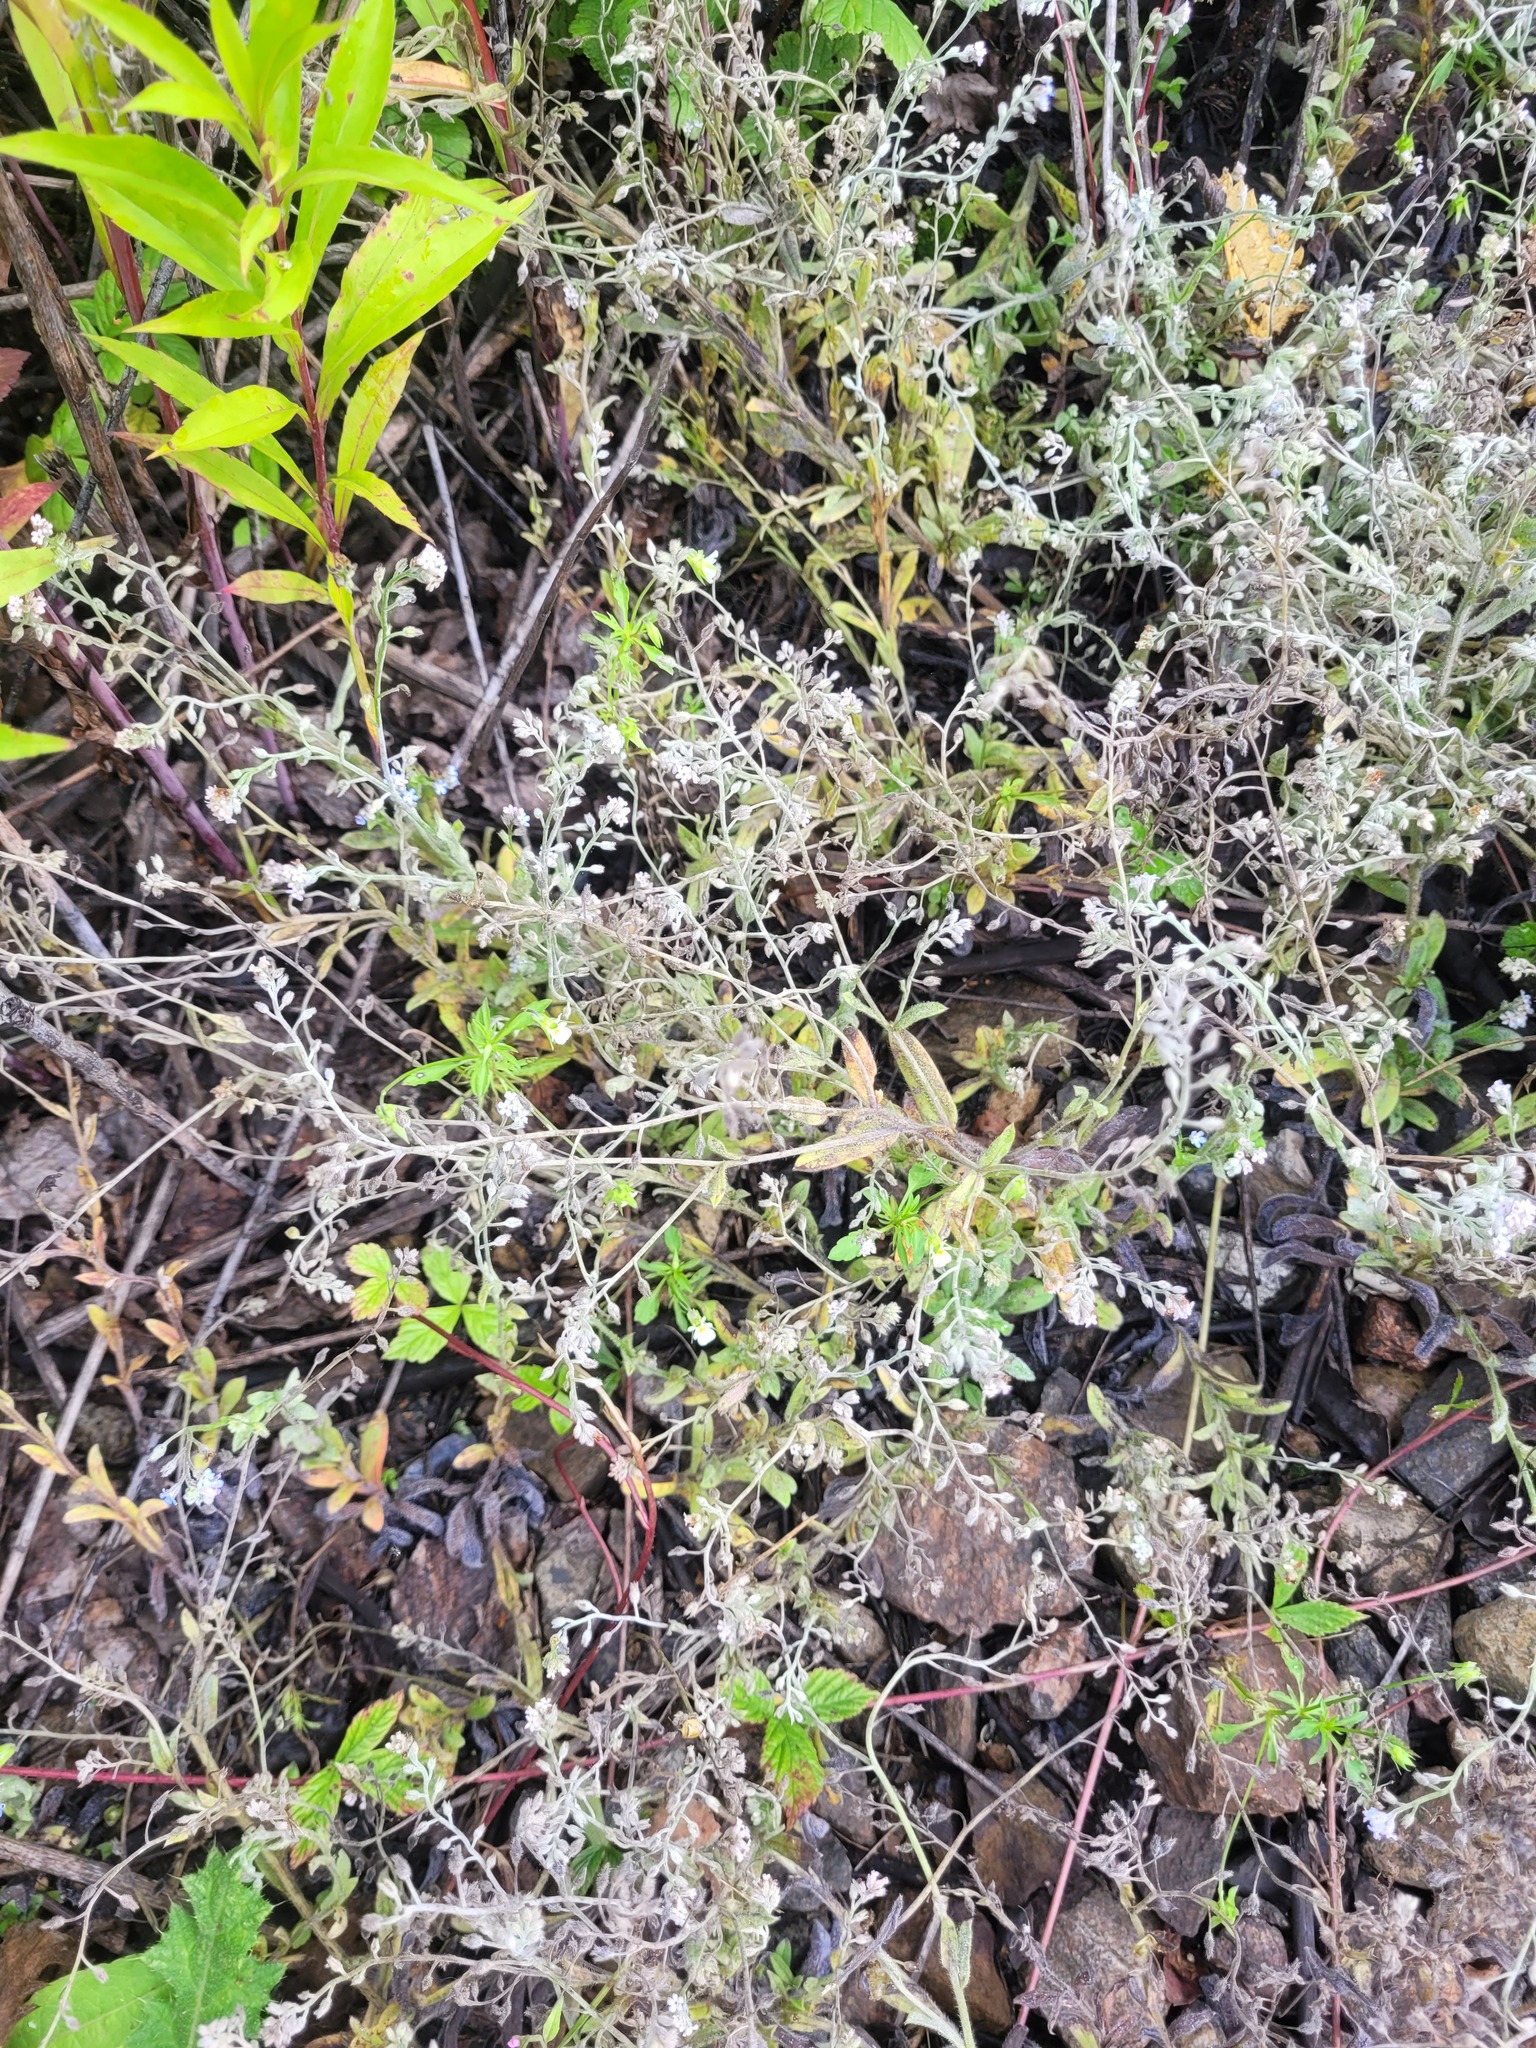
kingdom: Plantae
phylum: Tracheophyta
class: Magnoliopsida
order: Boraginales
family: Boraginaceae
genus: Myosotis
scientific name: Myosotis arvensis
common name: Field forget-me-not
